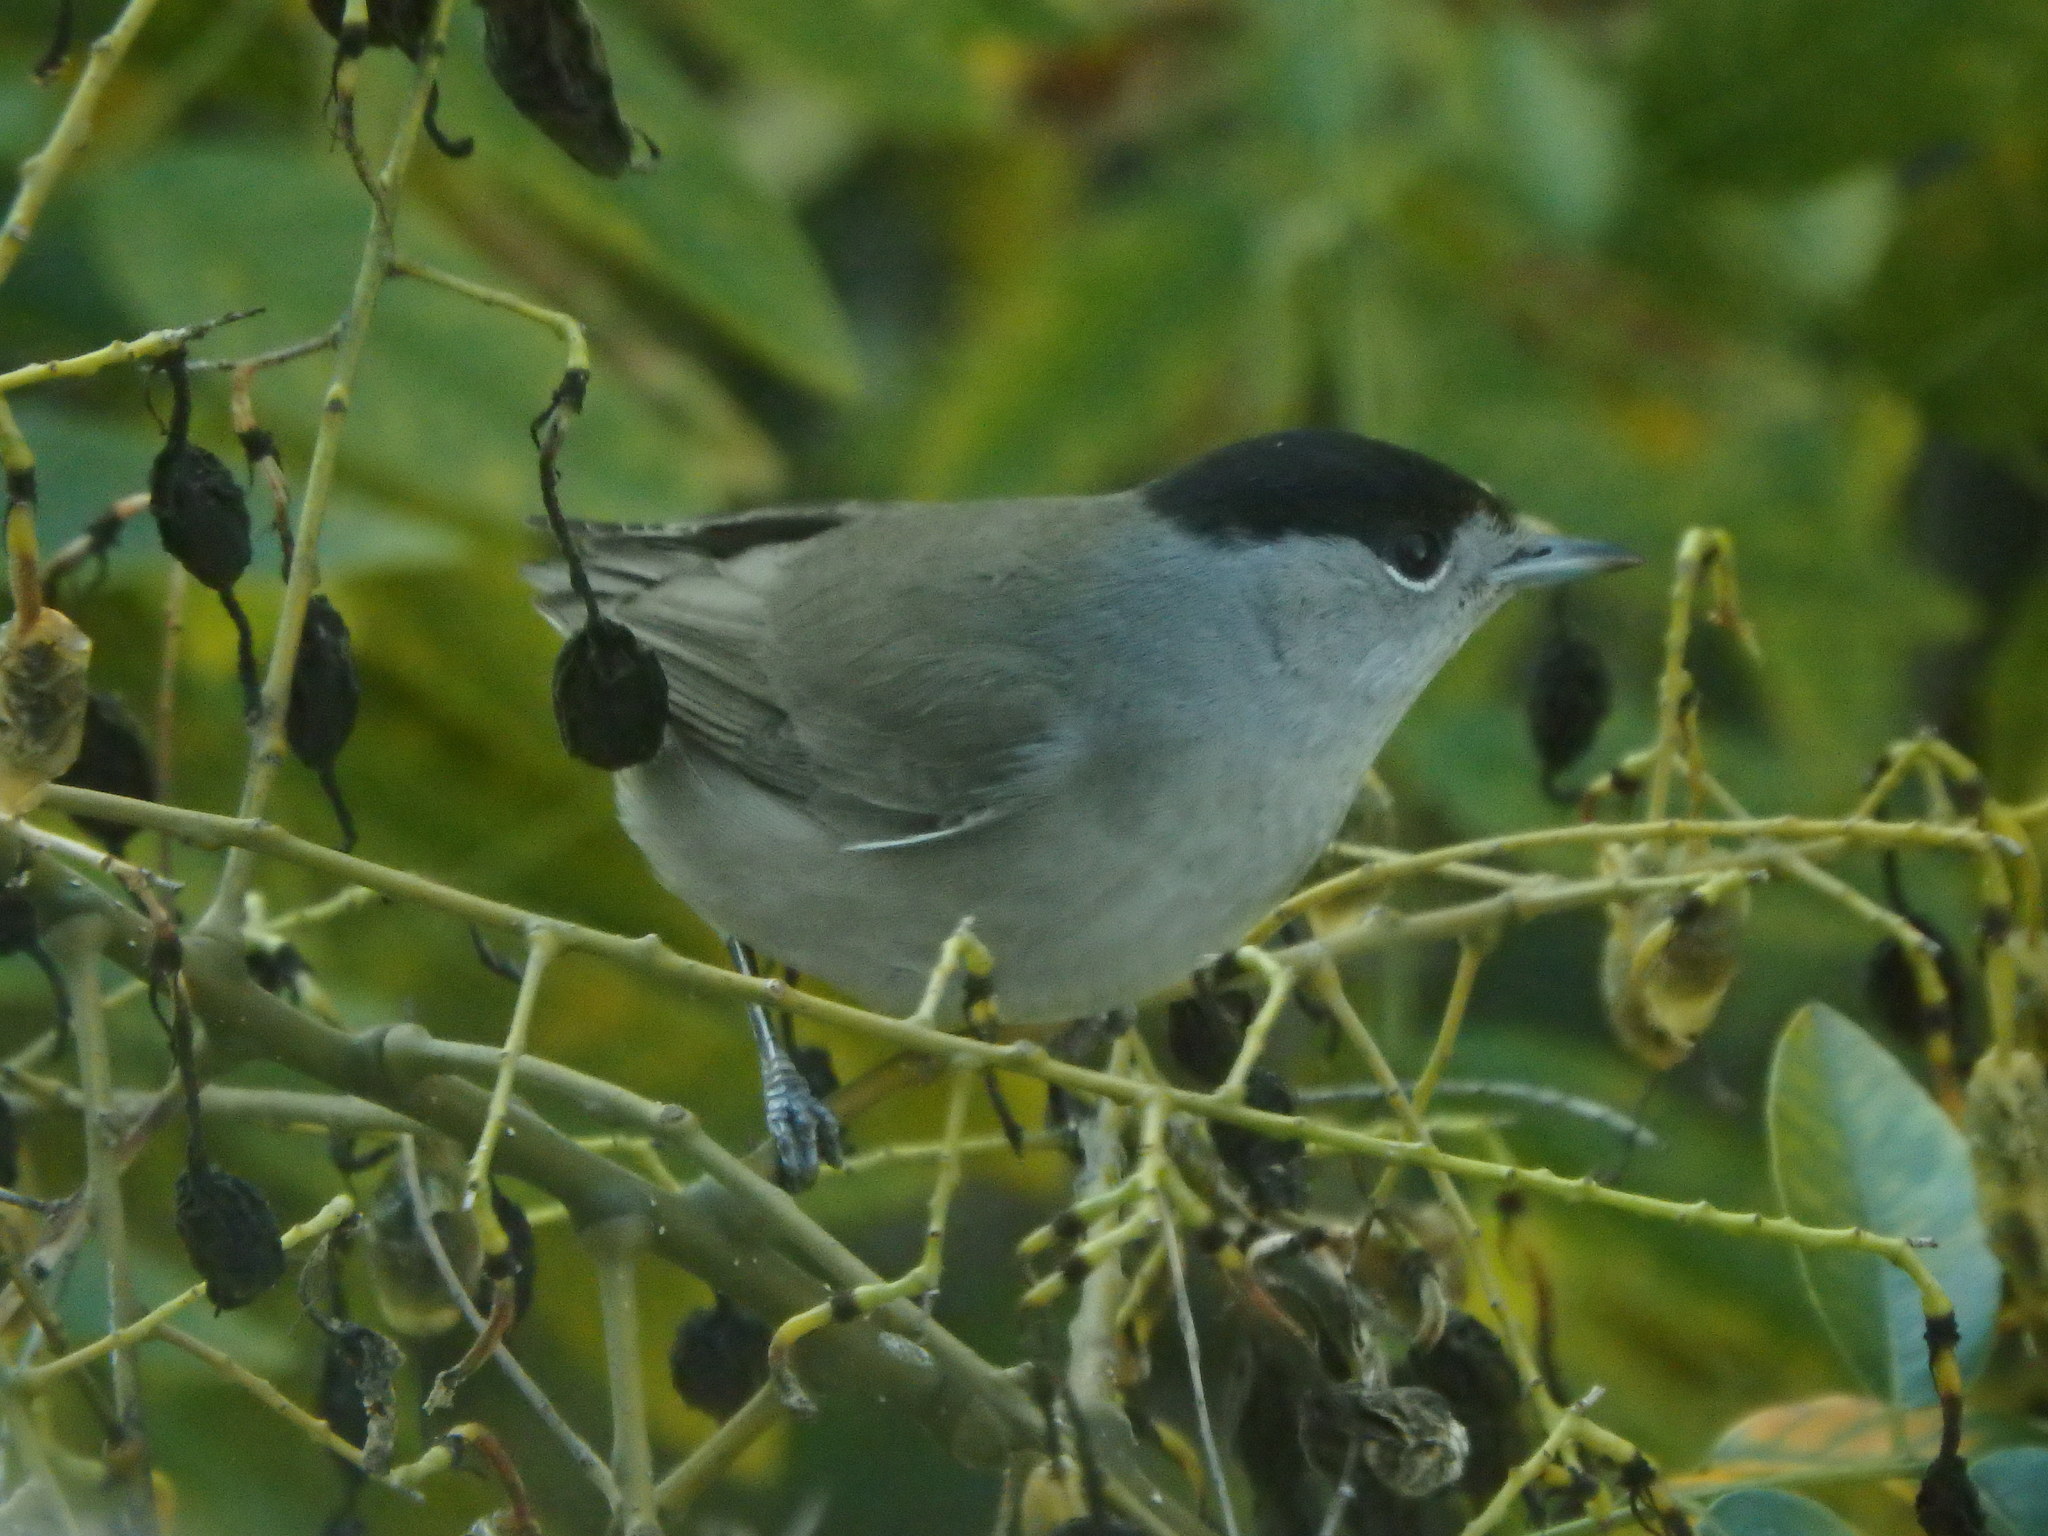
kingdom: Animalia
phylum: Chordata
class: Aves
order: Passeriformes
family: Sylviidae
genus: Sylvia
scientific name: Sylvia atricapilla
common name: Eurasian blackcap
